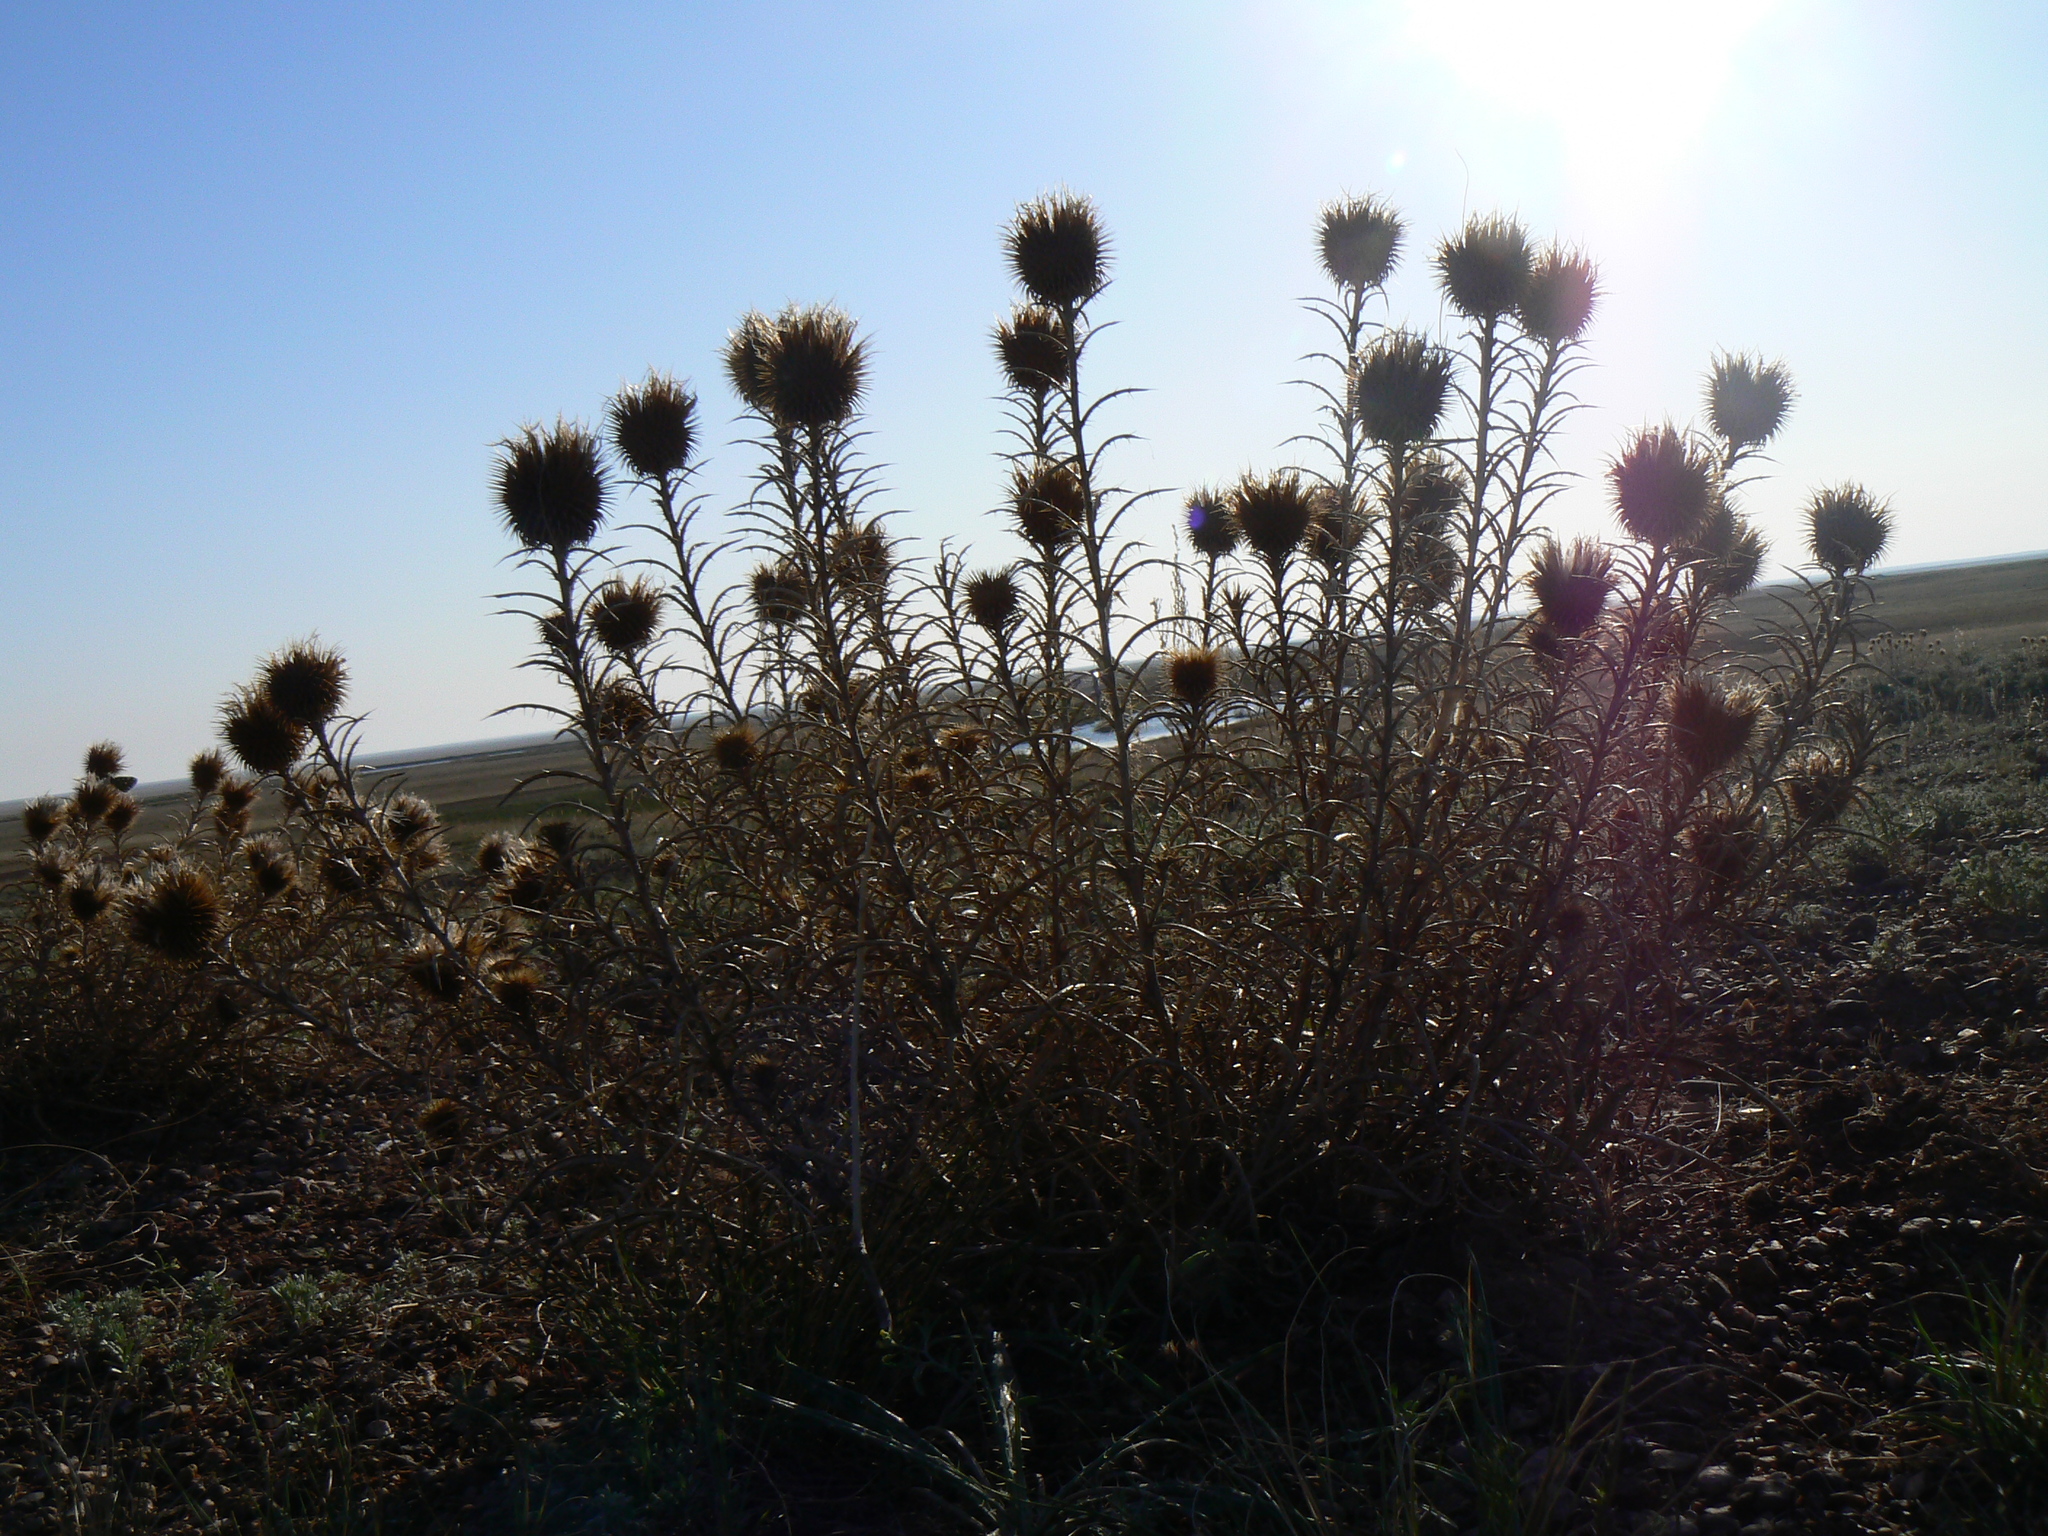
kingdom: Plantae
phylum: Tracheophyta
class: Magnoliopsida
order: Asterales
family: Asteraceae
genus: Ancathia
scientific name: Ancathia igniaria
